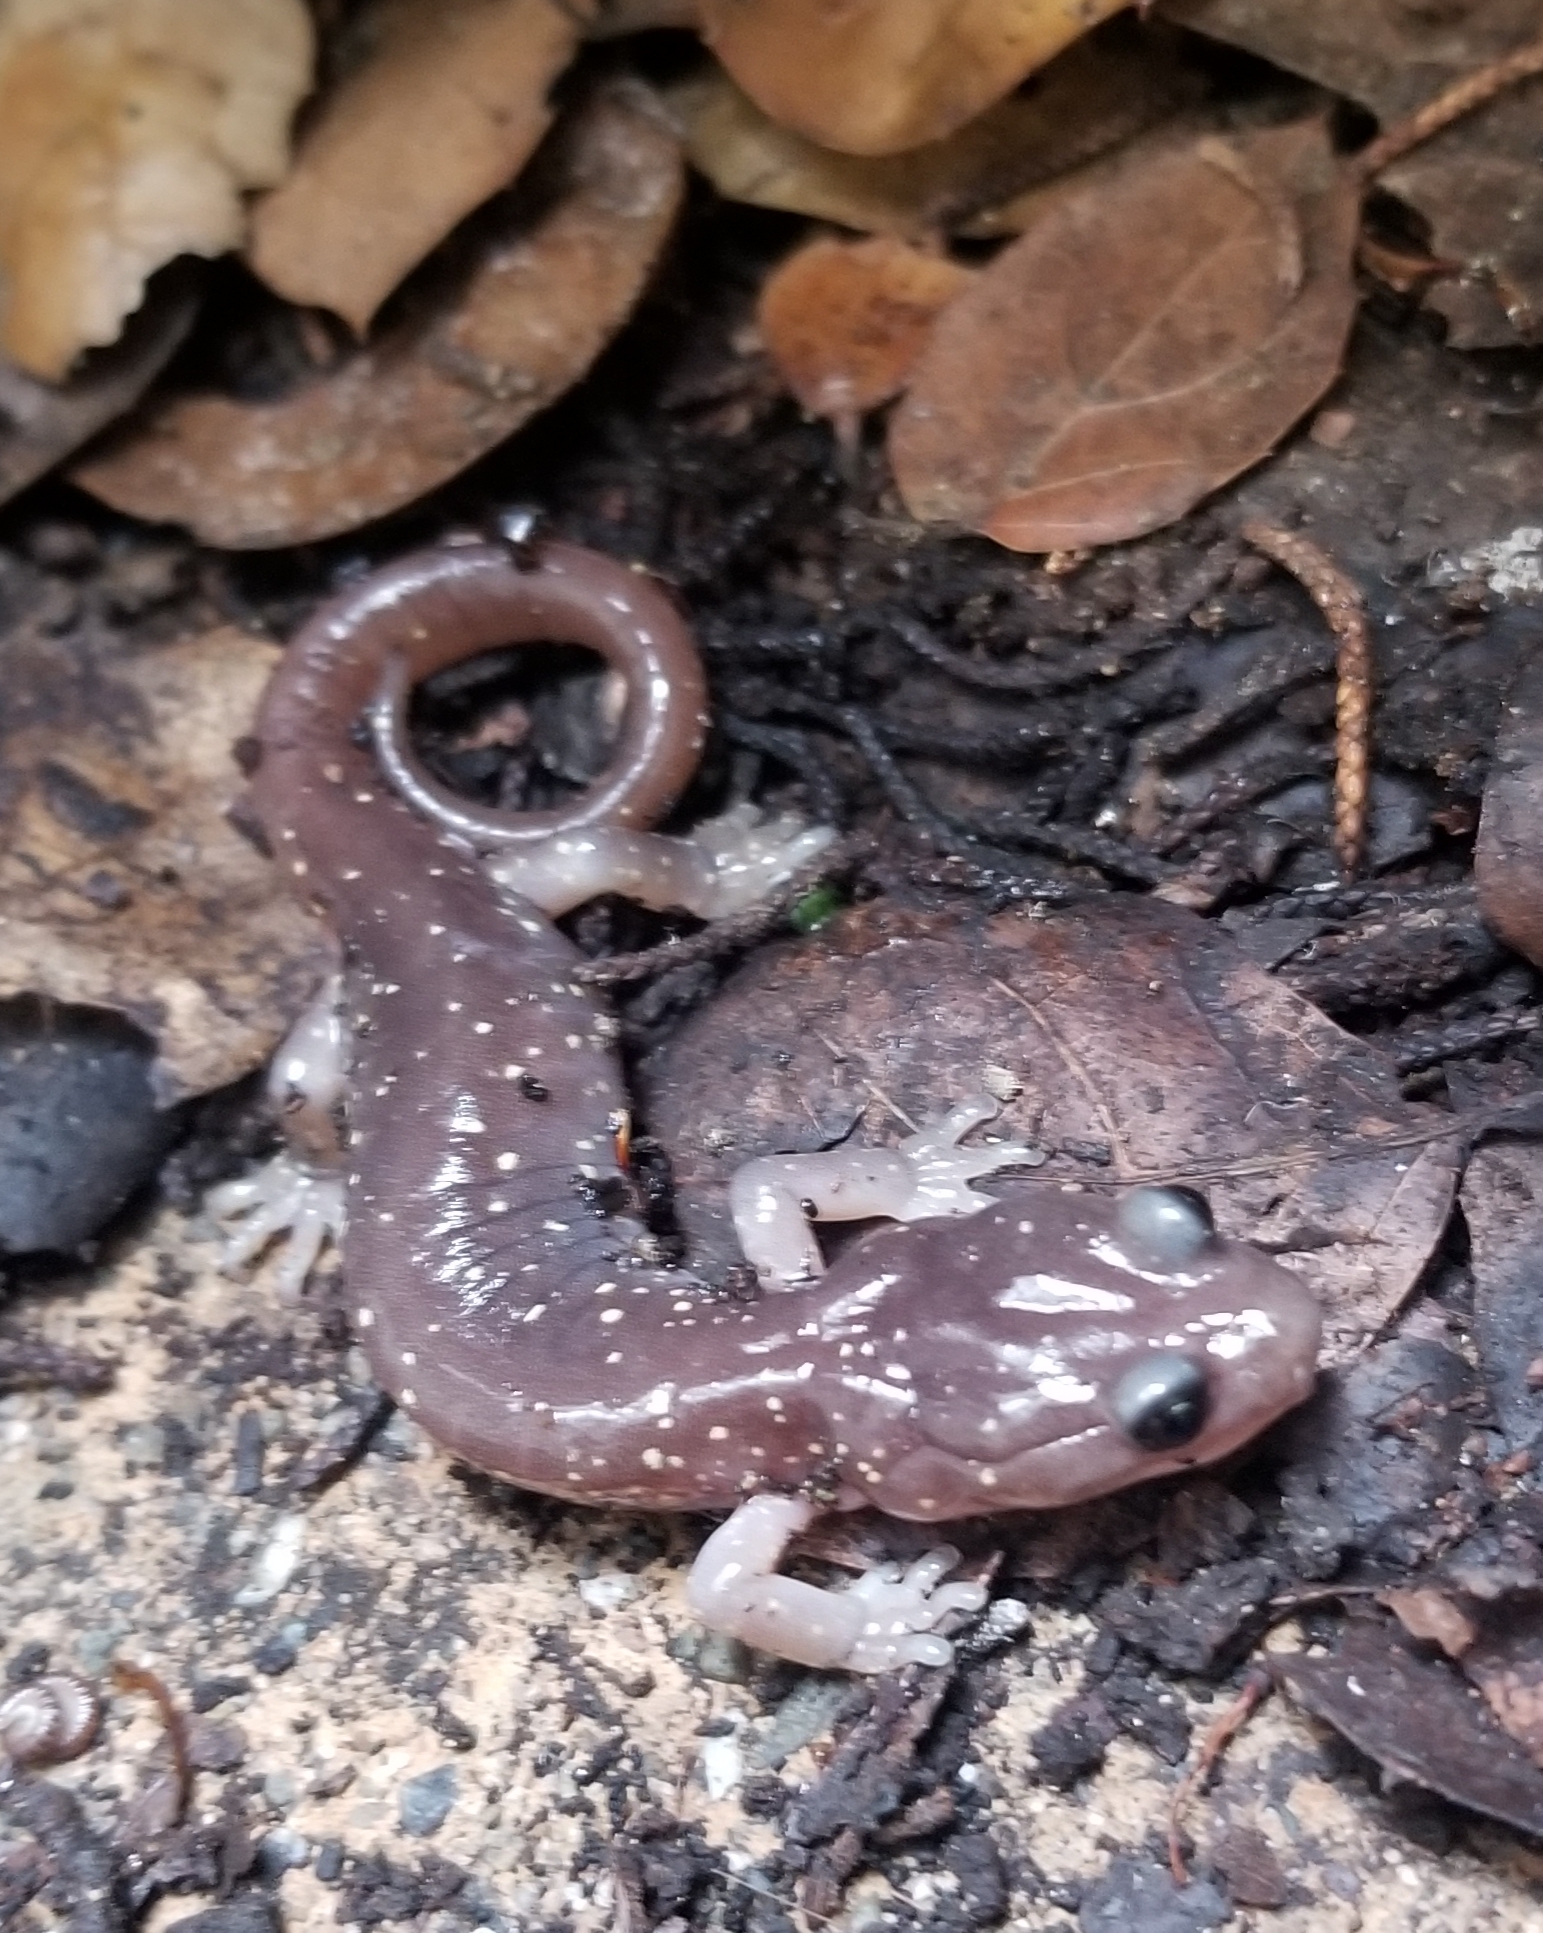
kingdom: Animalia
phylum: Chordata
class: Amphibia
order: Caudata
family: Plethodontidae
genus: Aneides
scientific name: Aneides lugubris
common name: Arboreal salamander
